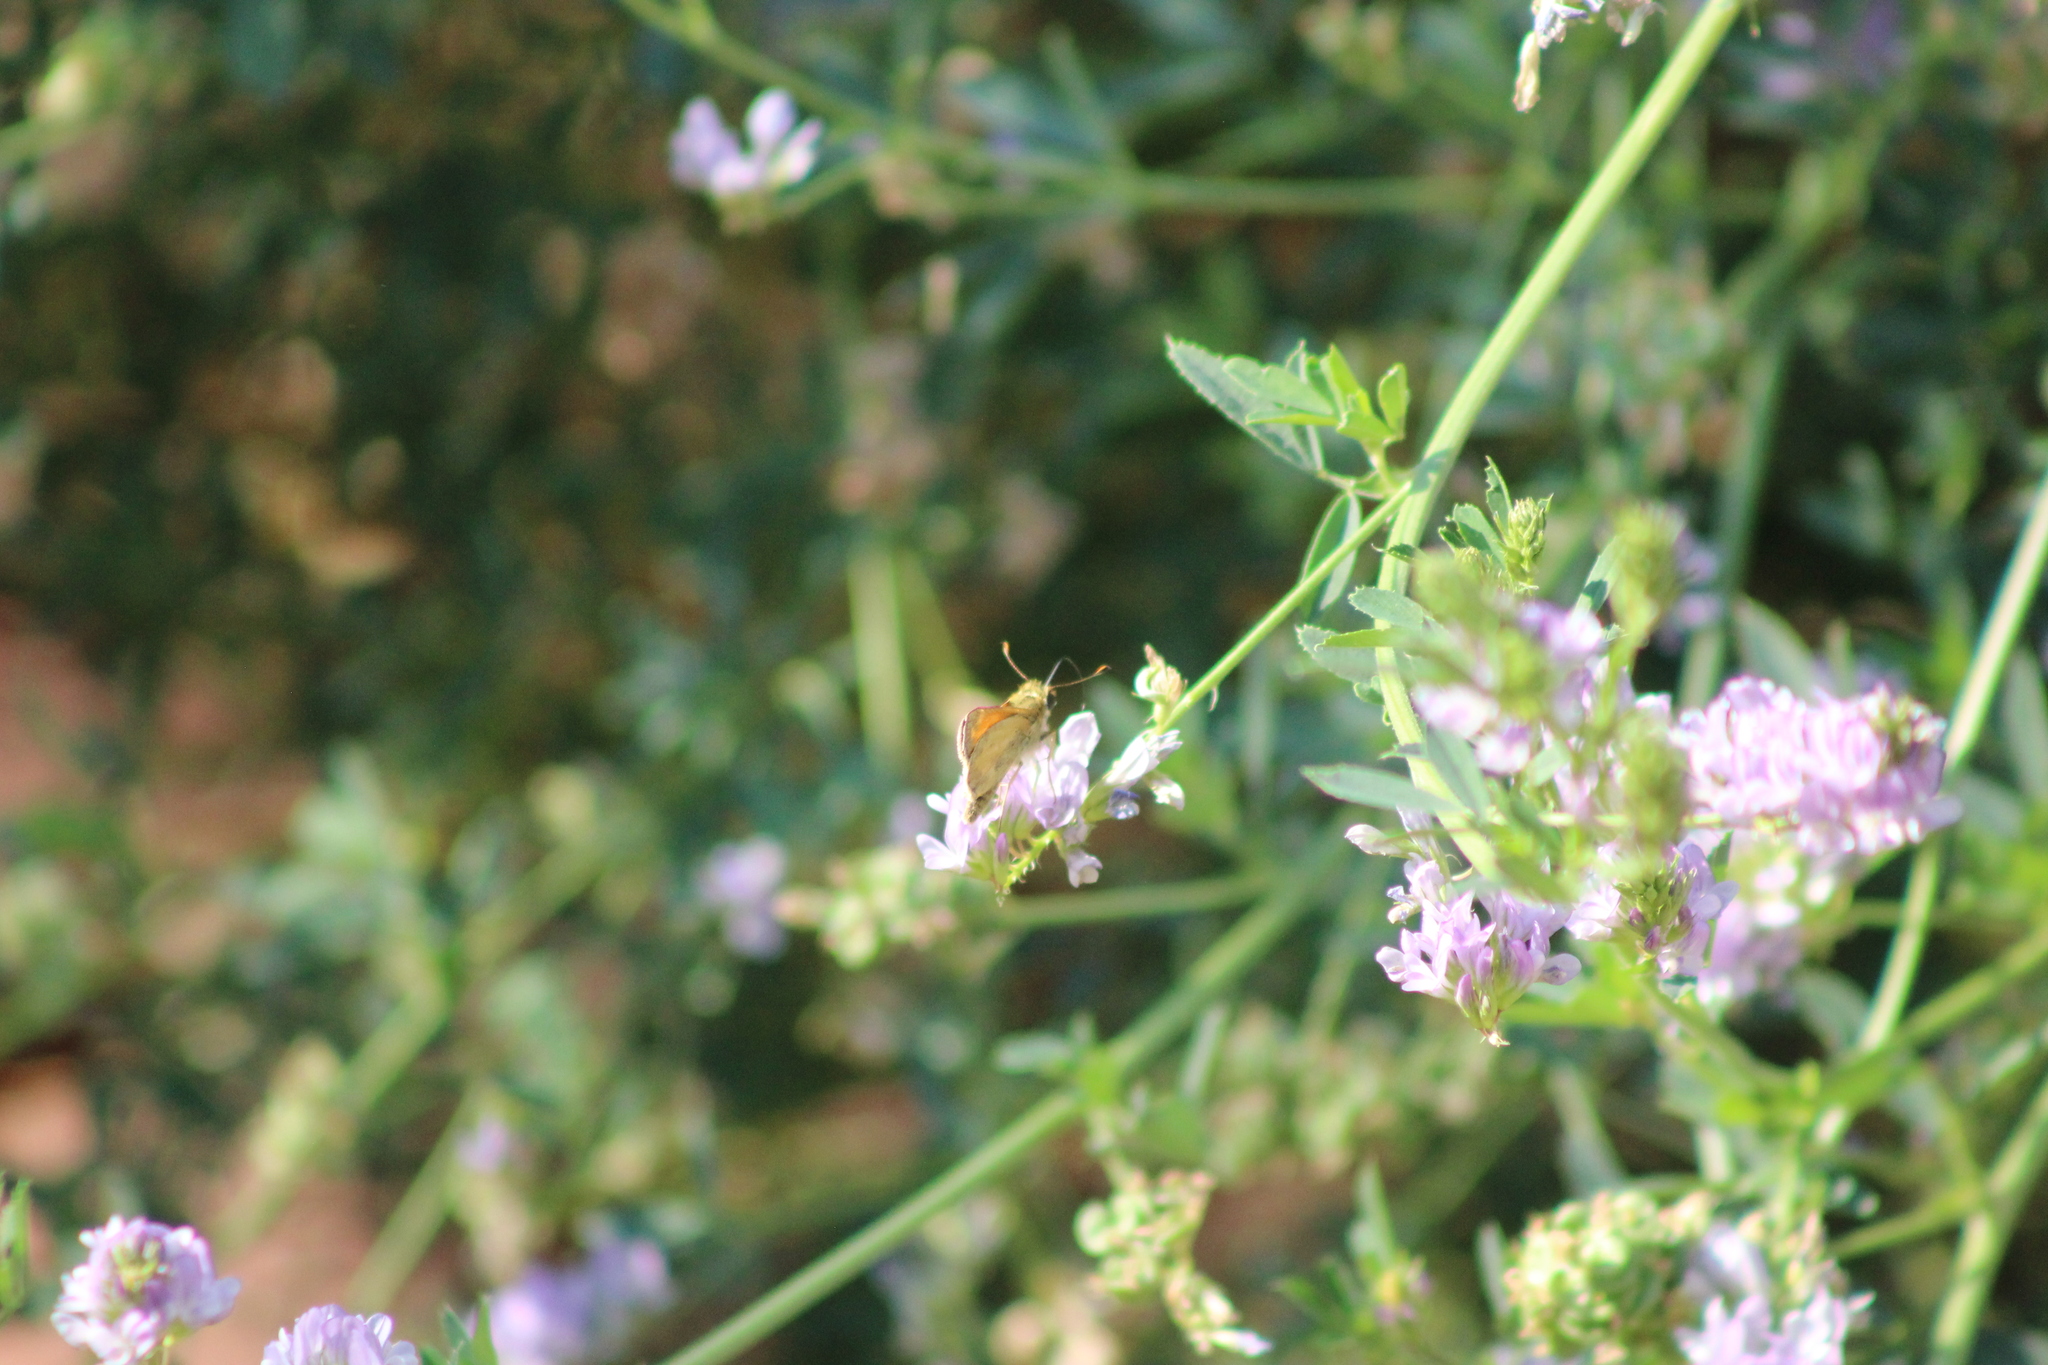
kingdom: Animalia
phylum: Arthropoda
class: Insecta
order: Lepidoptera
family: Hesperiidae
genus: Atalopedes
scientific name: Atalopedes campestris
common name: Sachem
